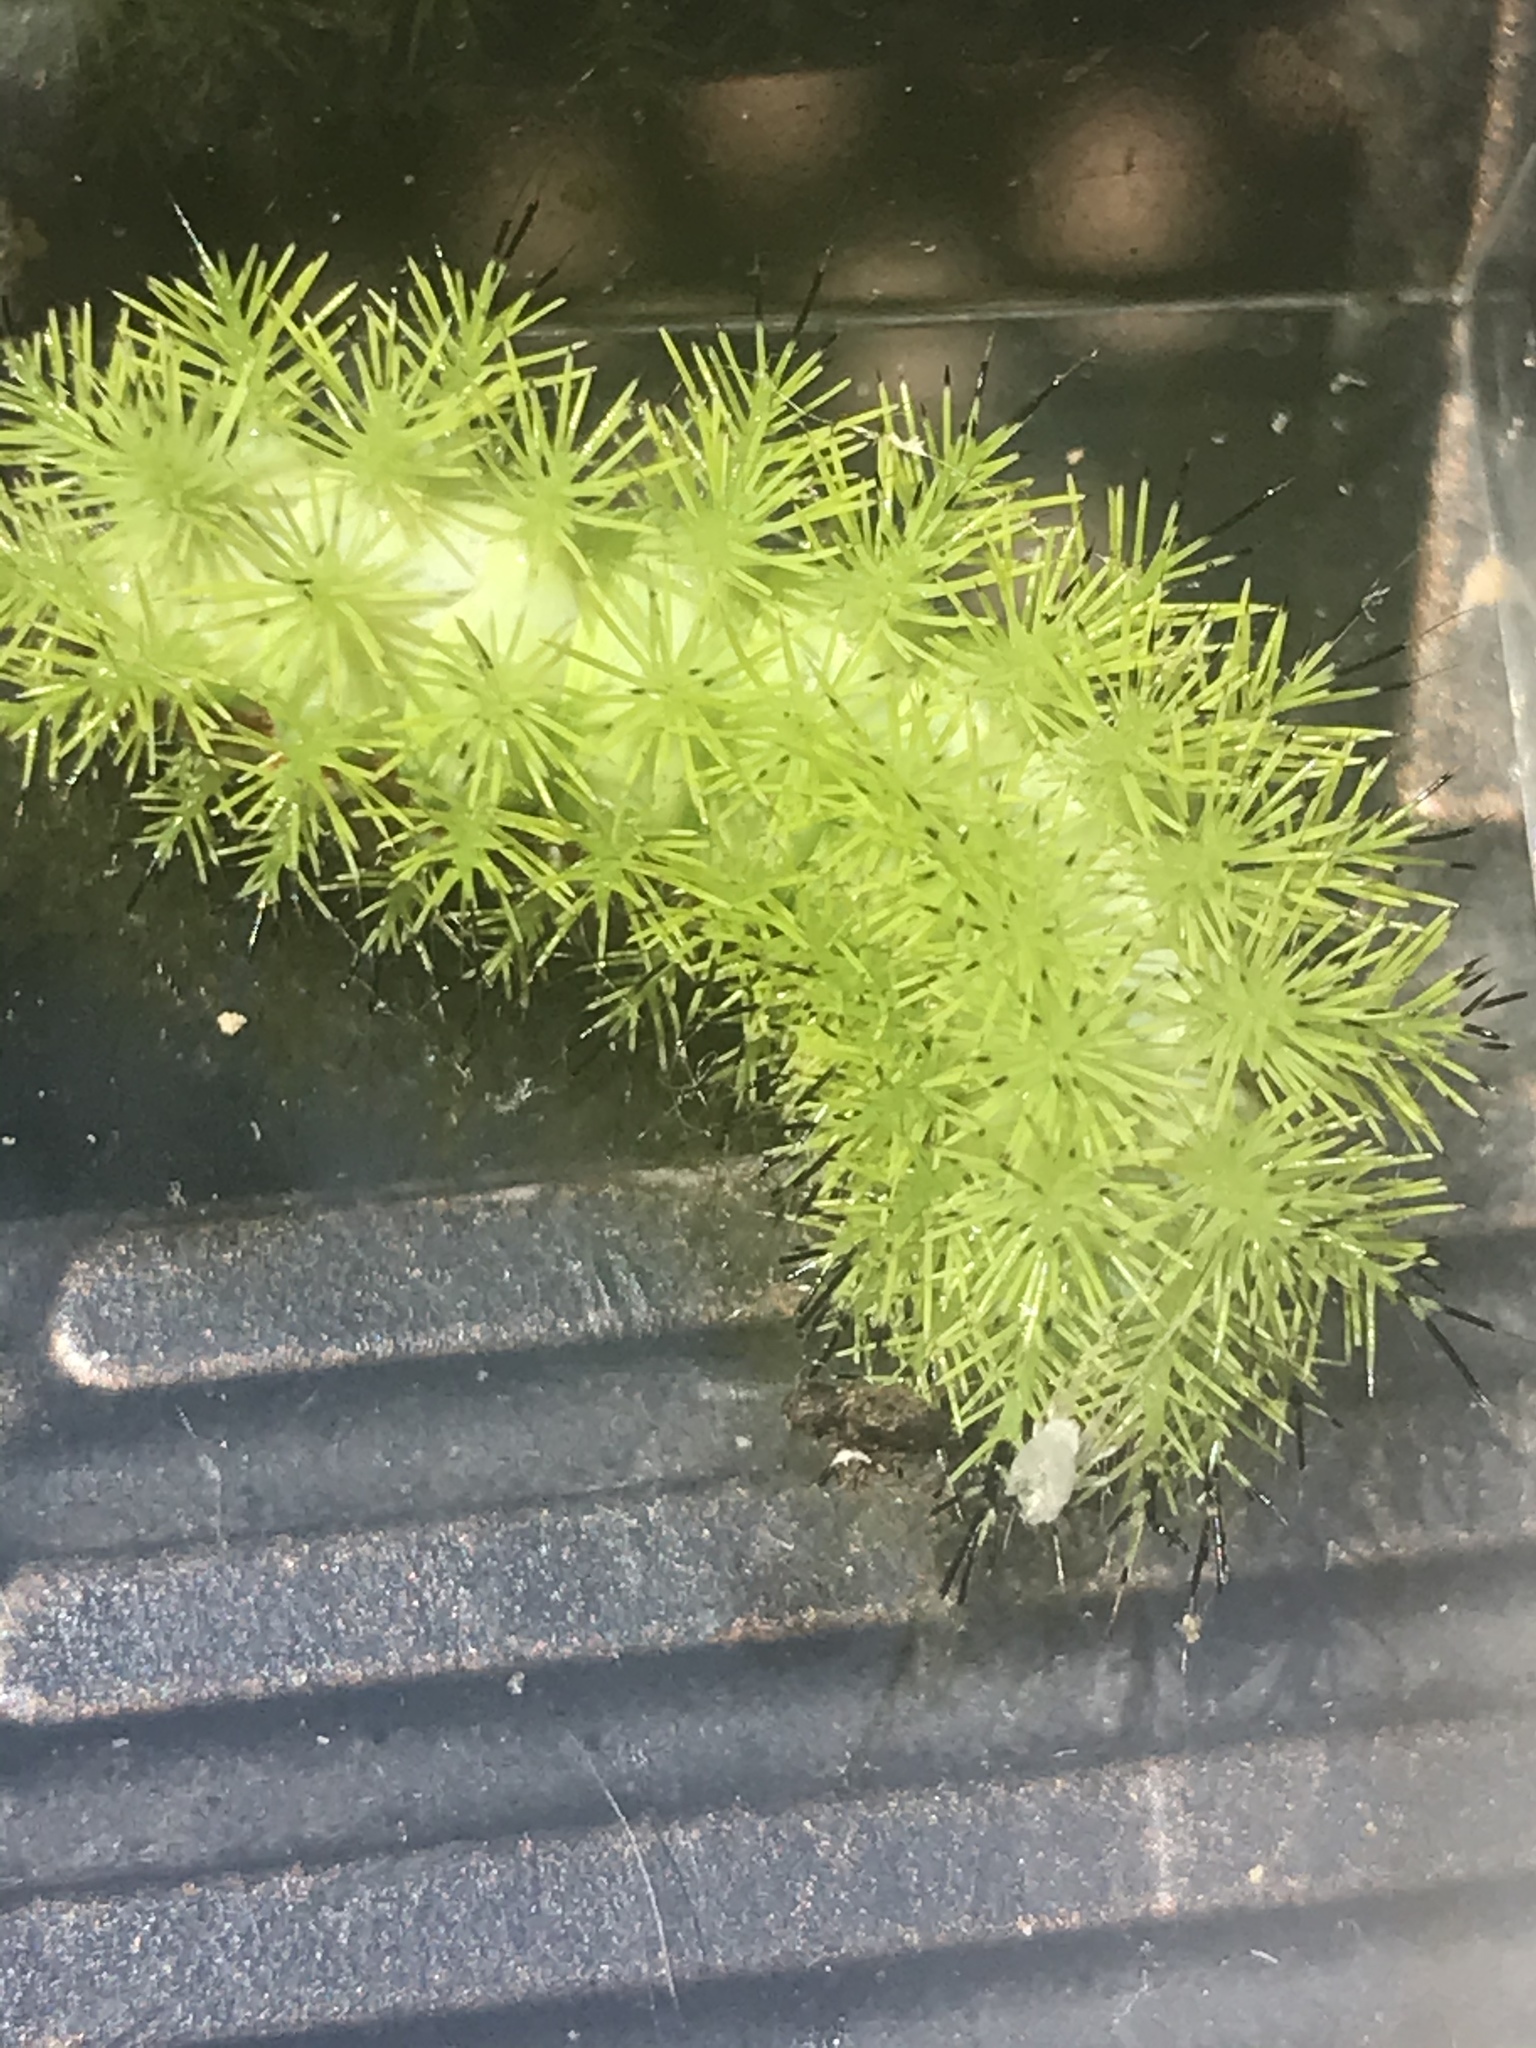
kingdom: Animalia
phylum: Arthropoda
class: Insecta
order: Lepidoptera
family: Saturniidae
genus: Automeris
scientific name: Automeris io
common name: Io moth
